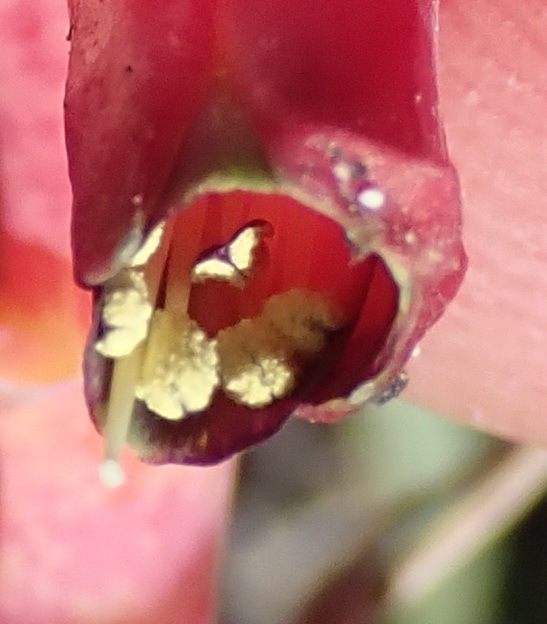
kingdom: Plantae
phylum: Tracheophyta
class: Liliopsida
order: Asparagales
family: Asparagaceae
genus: Lachenalia
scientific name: Lachenalia bulbifera
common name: Red lachenalia
